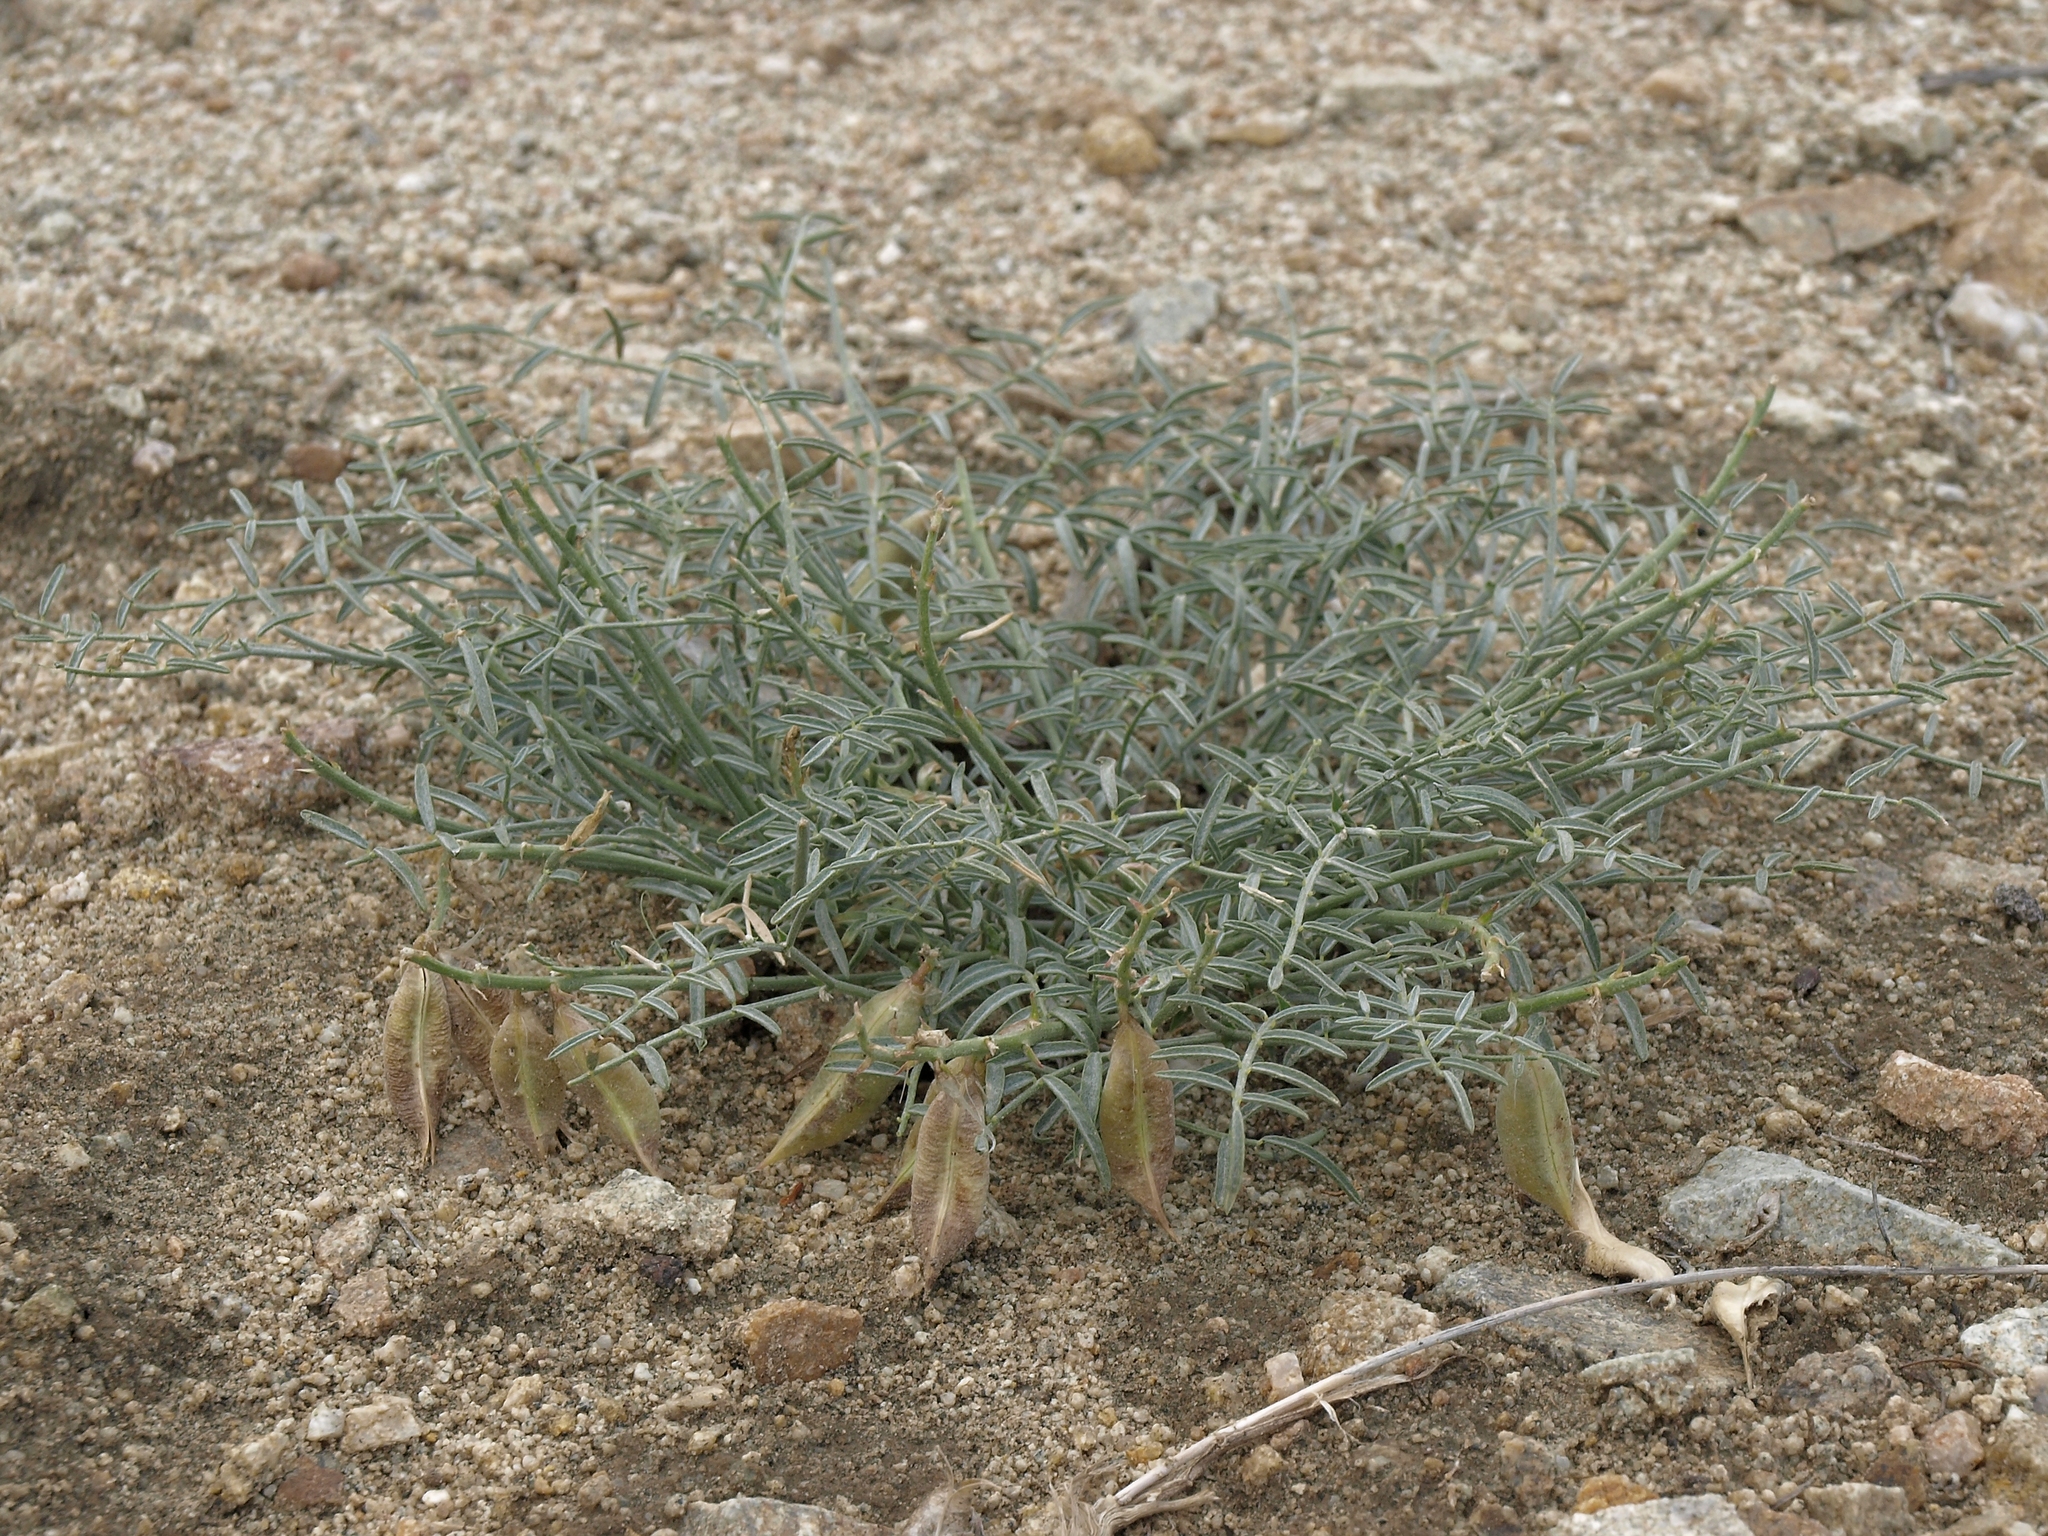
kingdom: Plantae
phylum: Tracheophyta
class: Magnoliopsida
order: Fabales
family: Fabaceae
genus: Astragalus
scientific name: Astragalus casei
